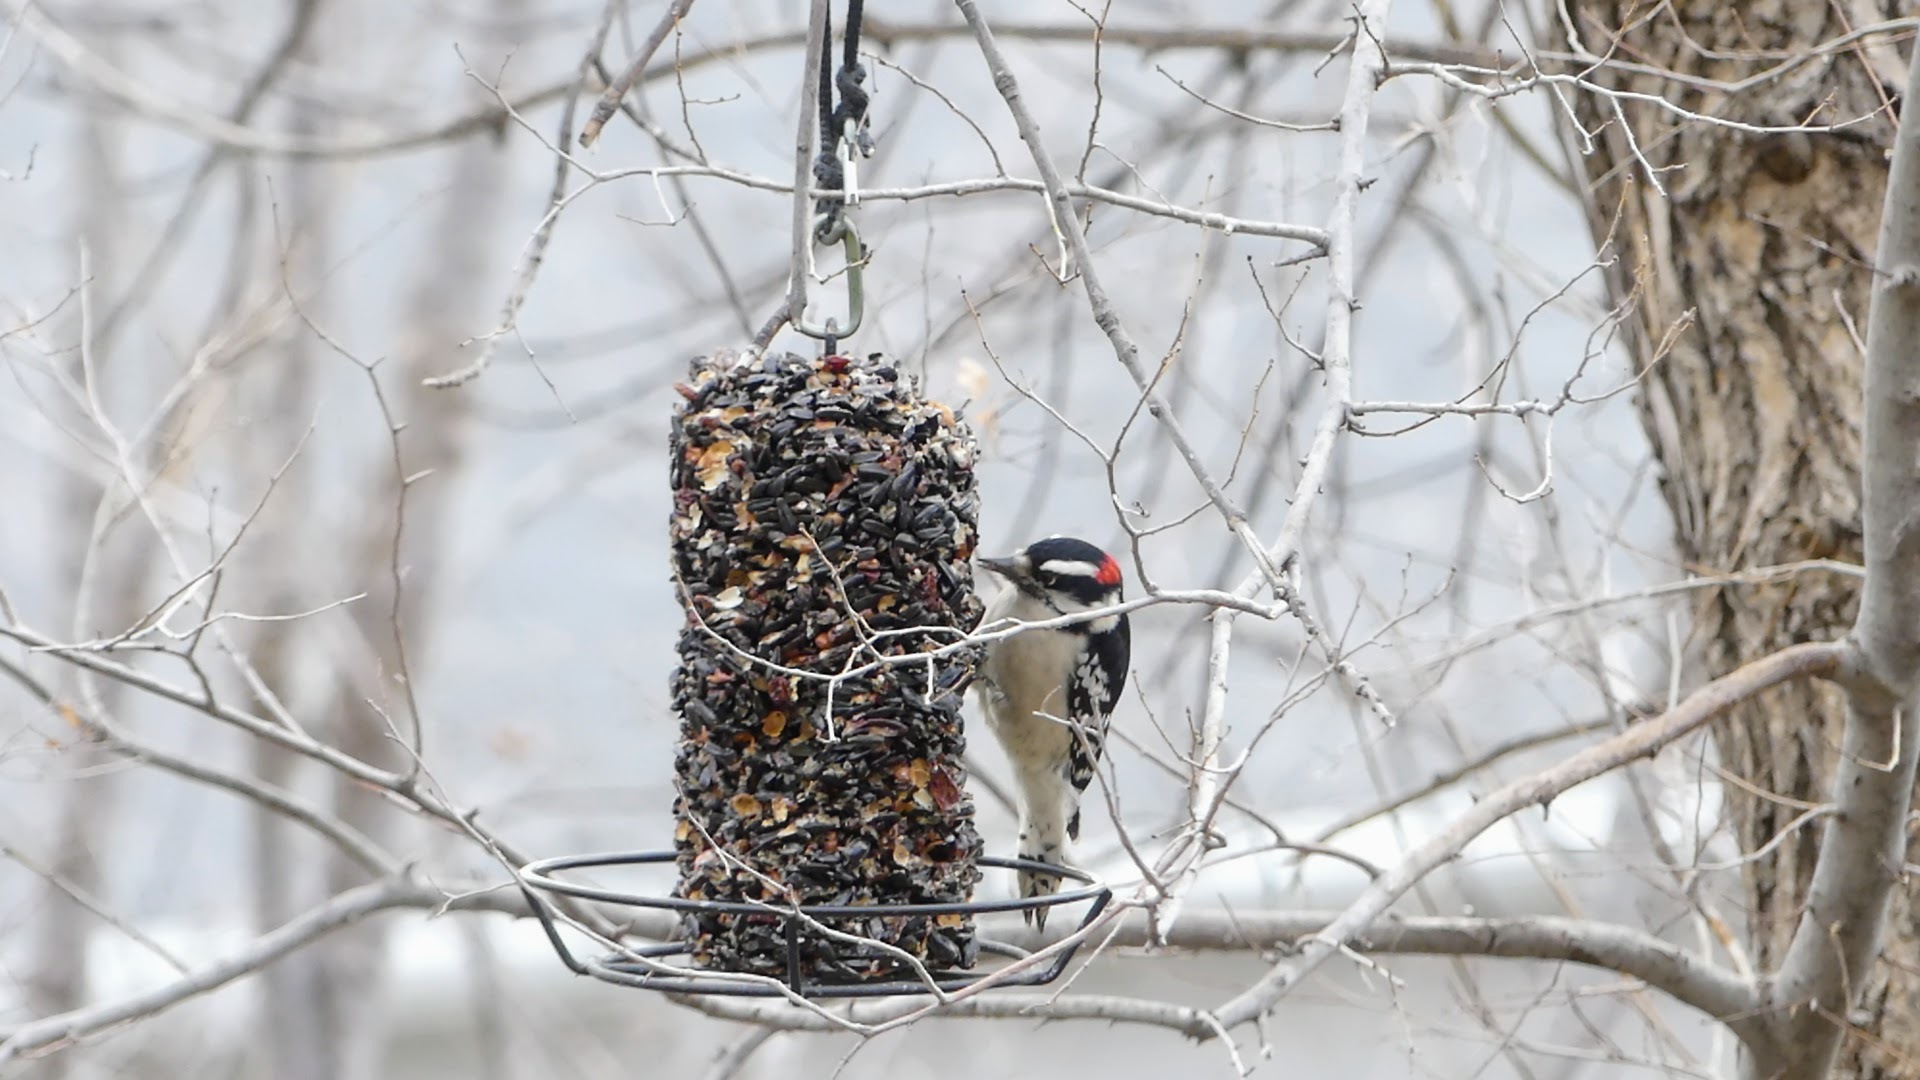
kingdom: Animalia
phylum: Chordata
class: Aves
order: Piciformes
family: Picidae
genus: Dryobates
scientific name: Dryobates pubescens
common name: Downy woodpecker
